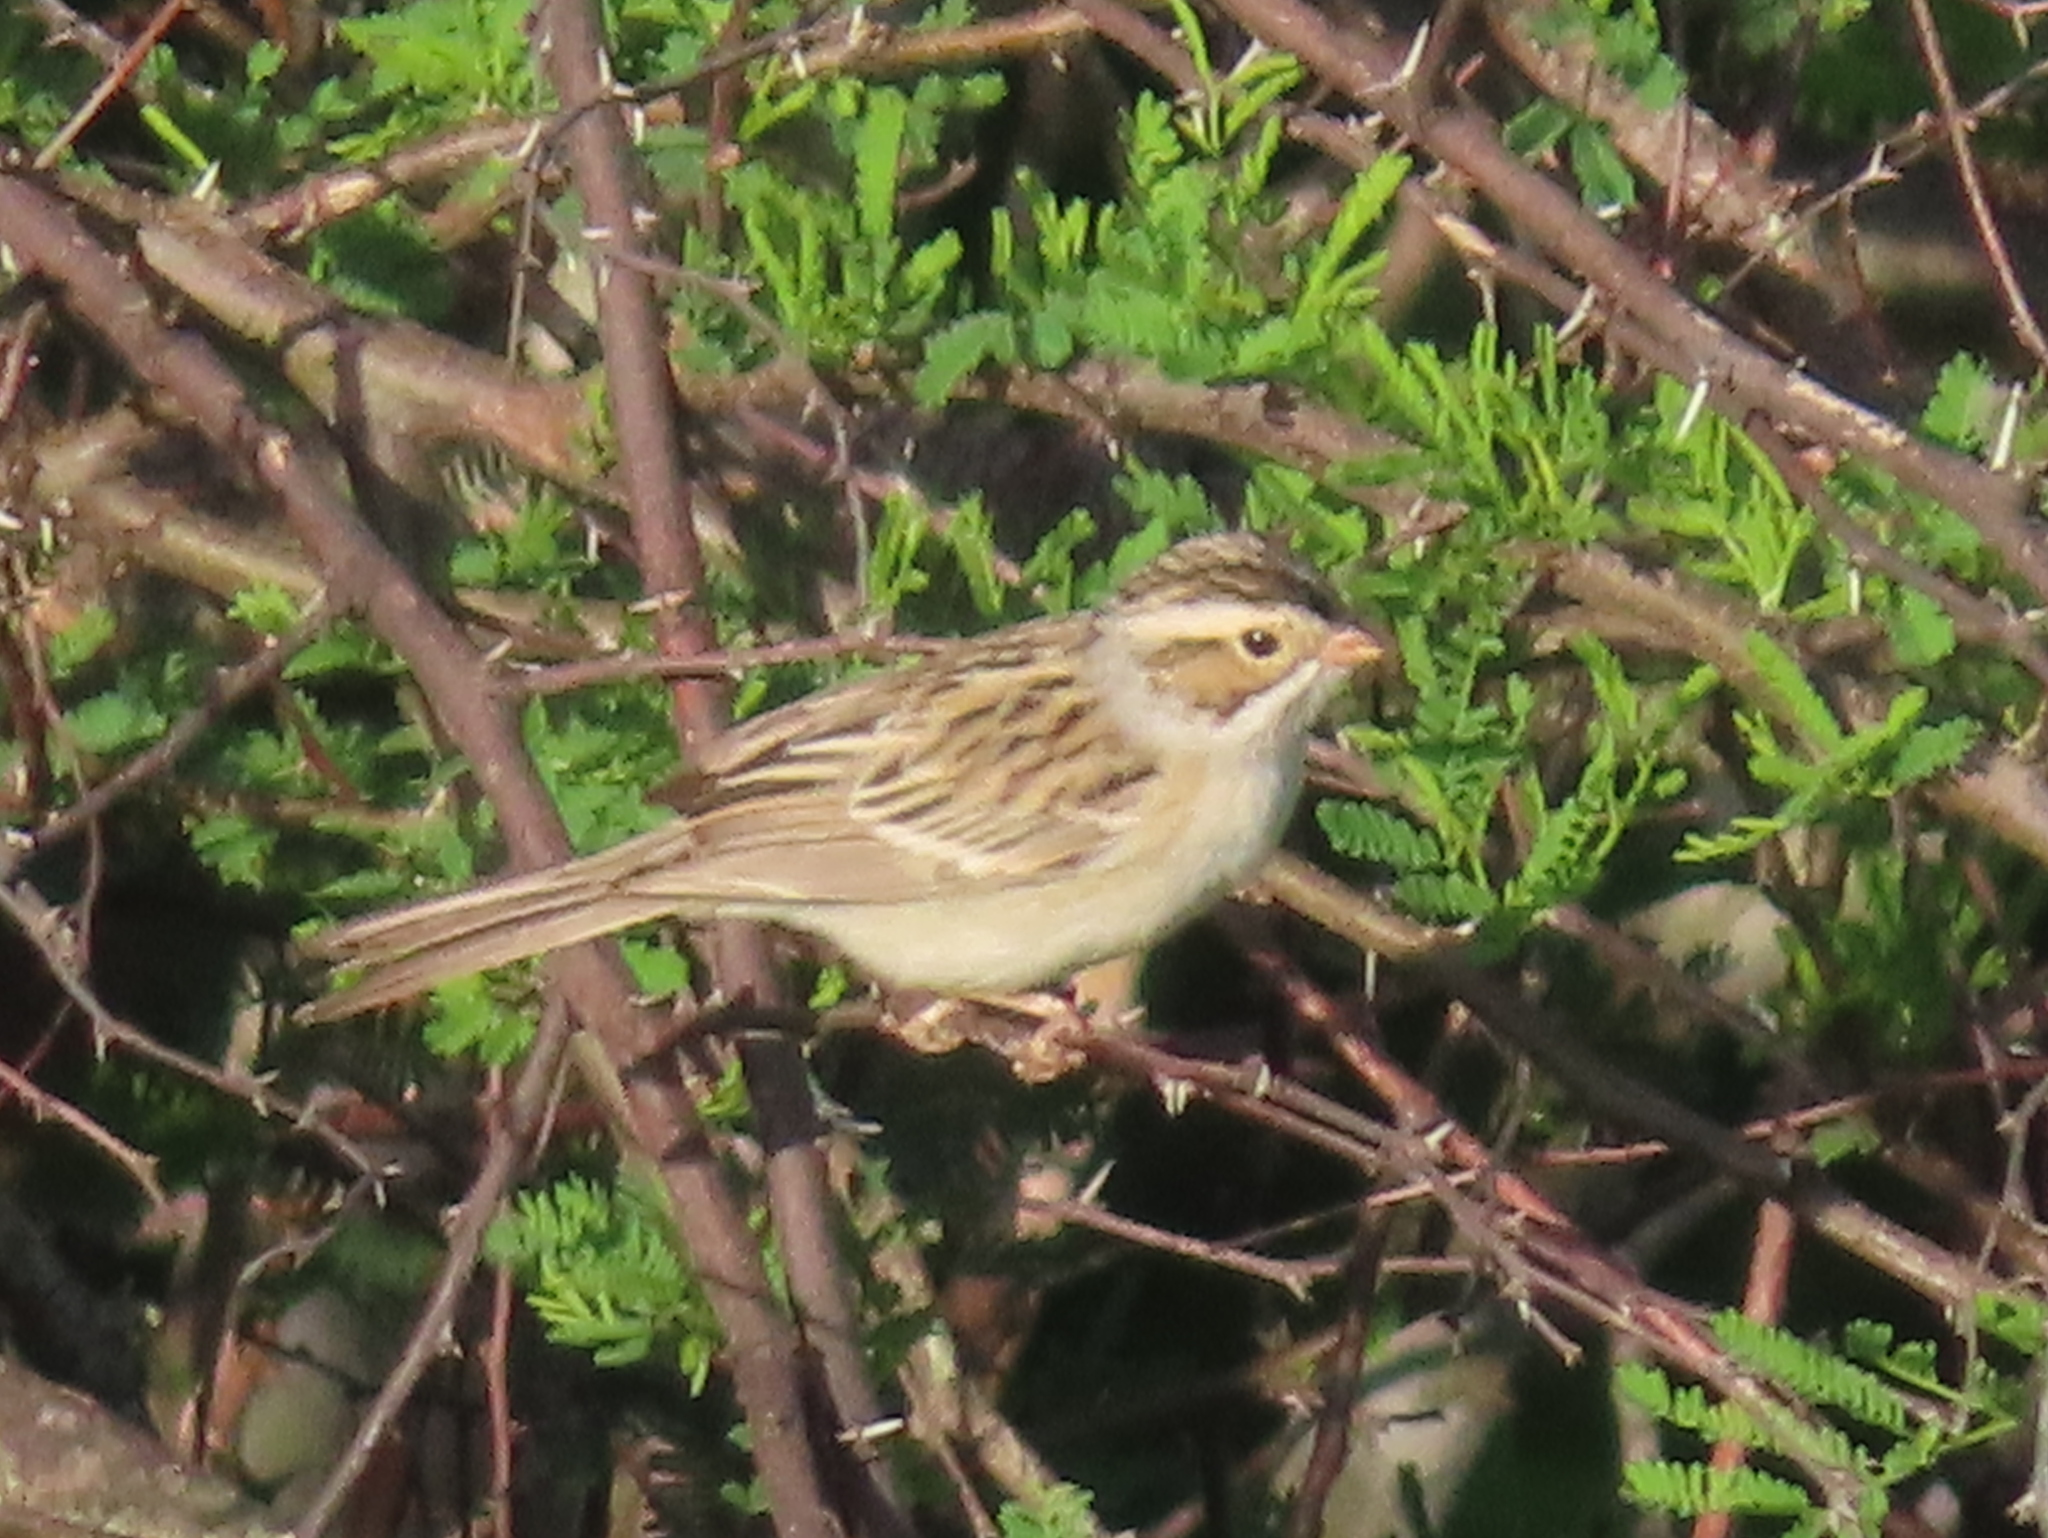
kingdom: Animalia
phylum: Chordata
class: Aves
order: Passeriformes
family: Passerellidae
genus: Spizella
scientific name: Spizella pallida
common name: Clay-colored sparrow
